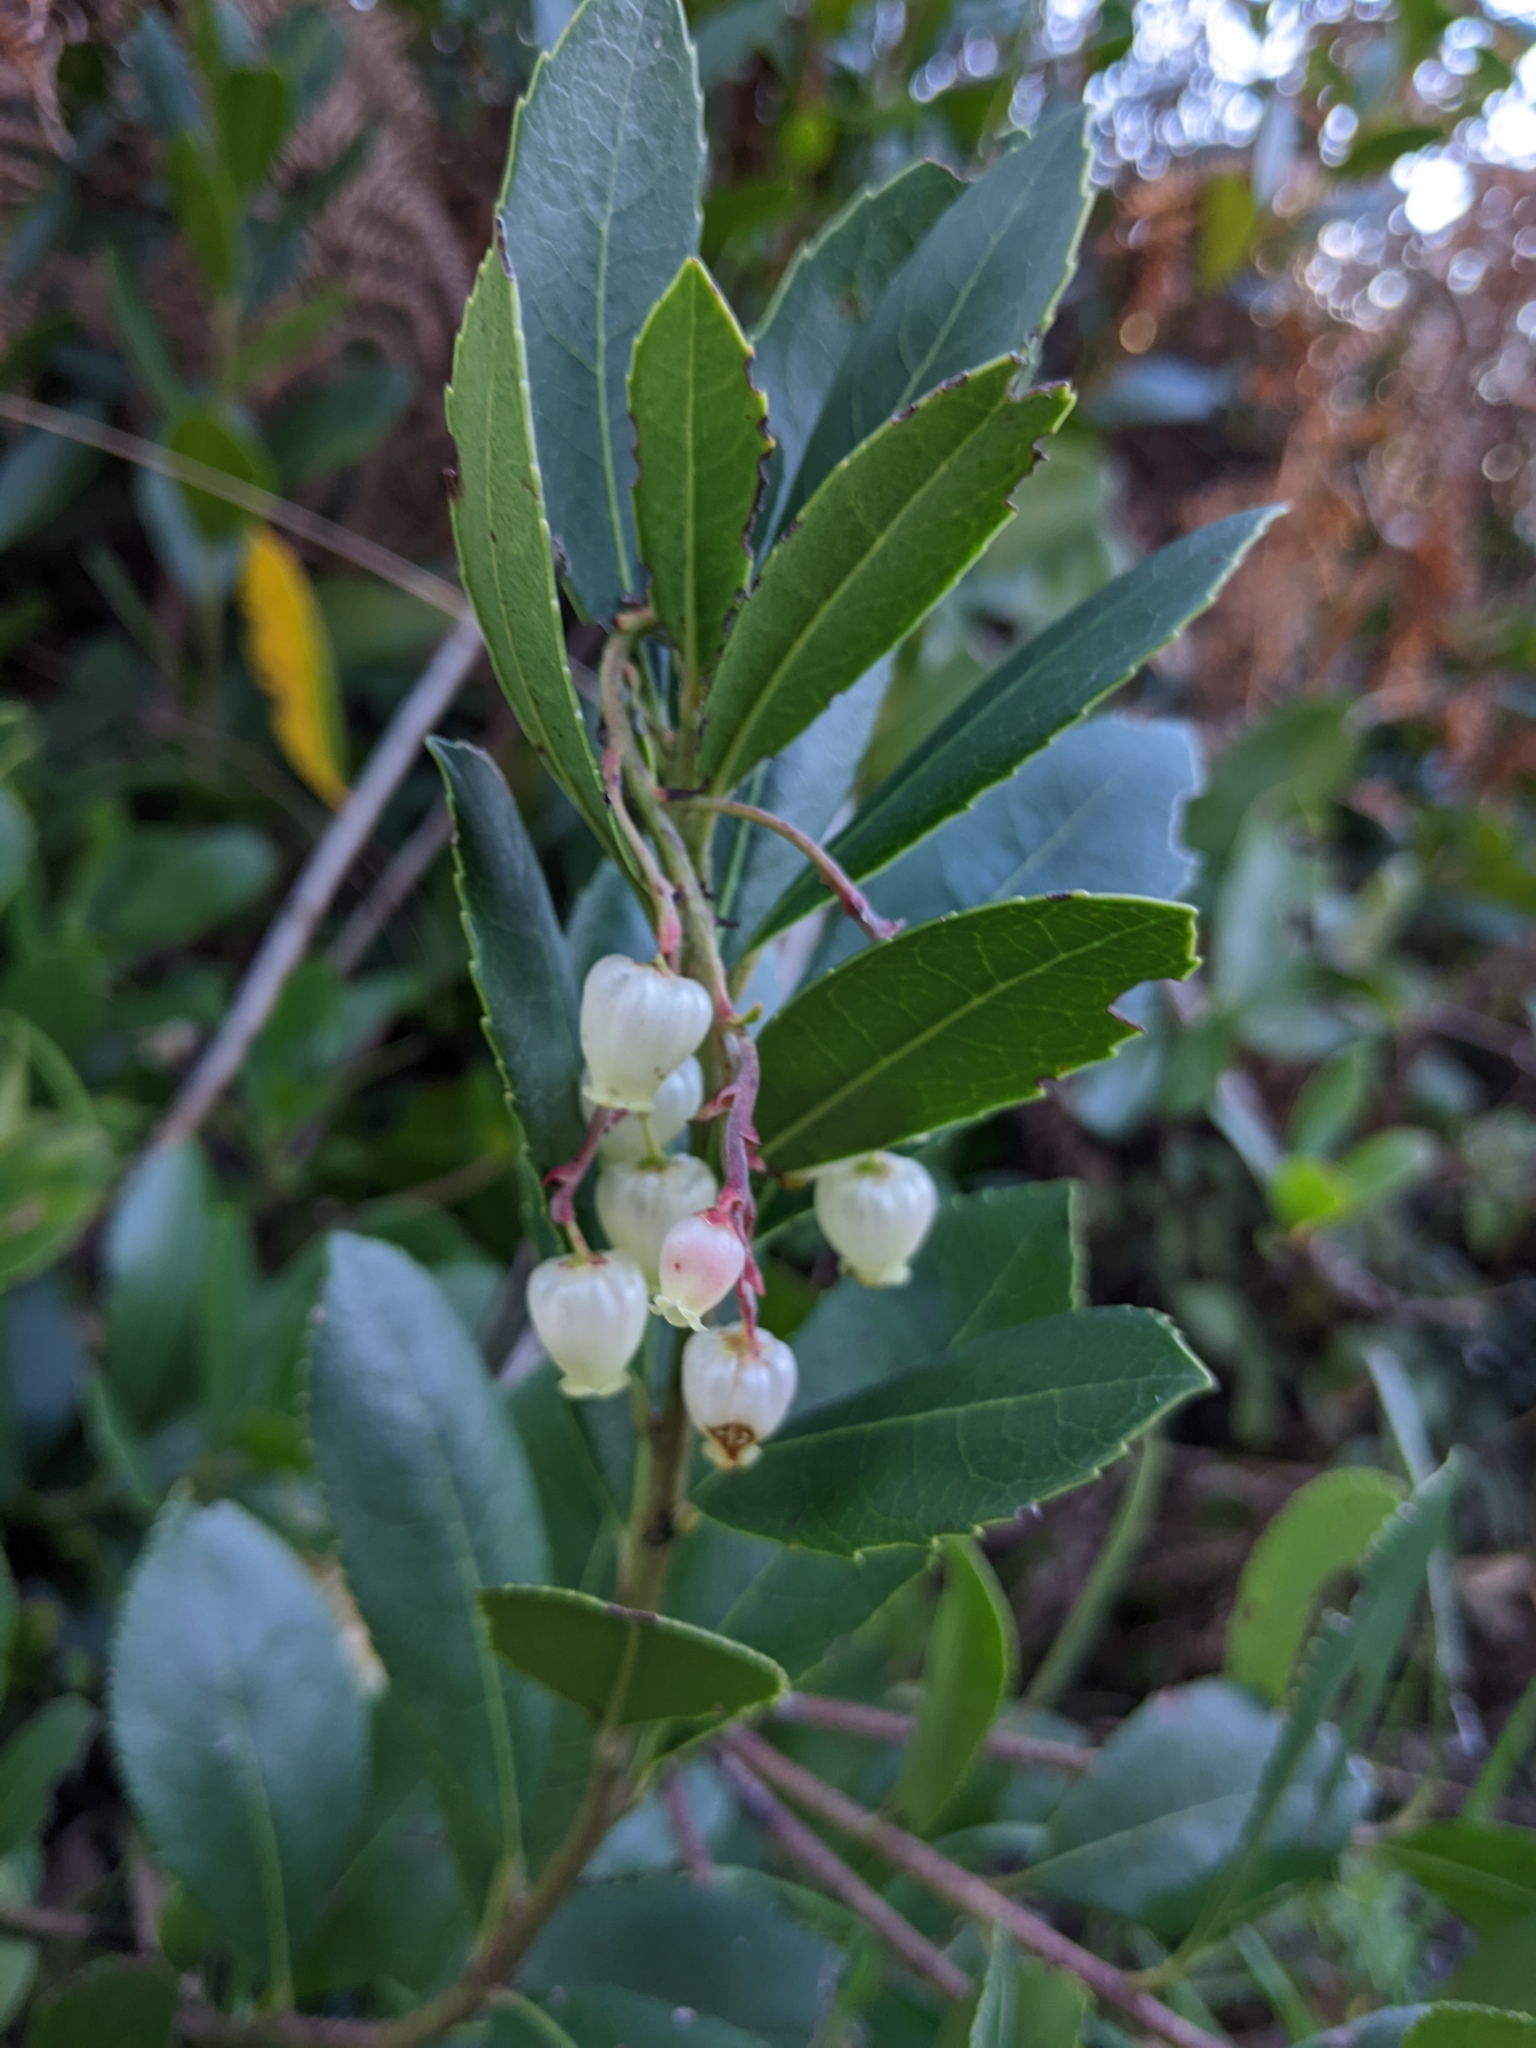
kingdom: Plantae
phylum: Tracheophyta
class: Magnoliopsida
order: Ericales
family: Ericaceae
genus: Arbutus
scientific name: Arbutus unedo
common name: Strawberry-tree
